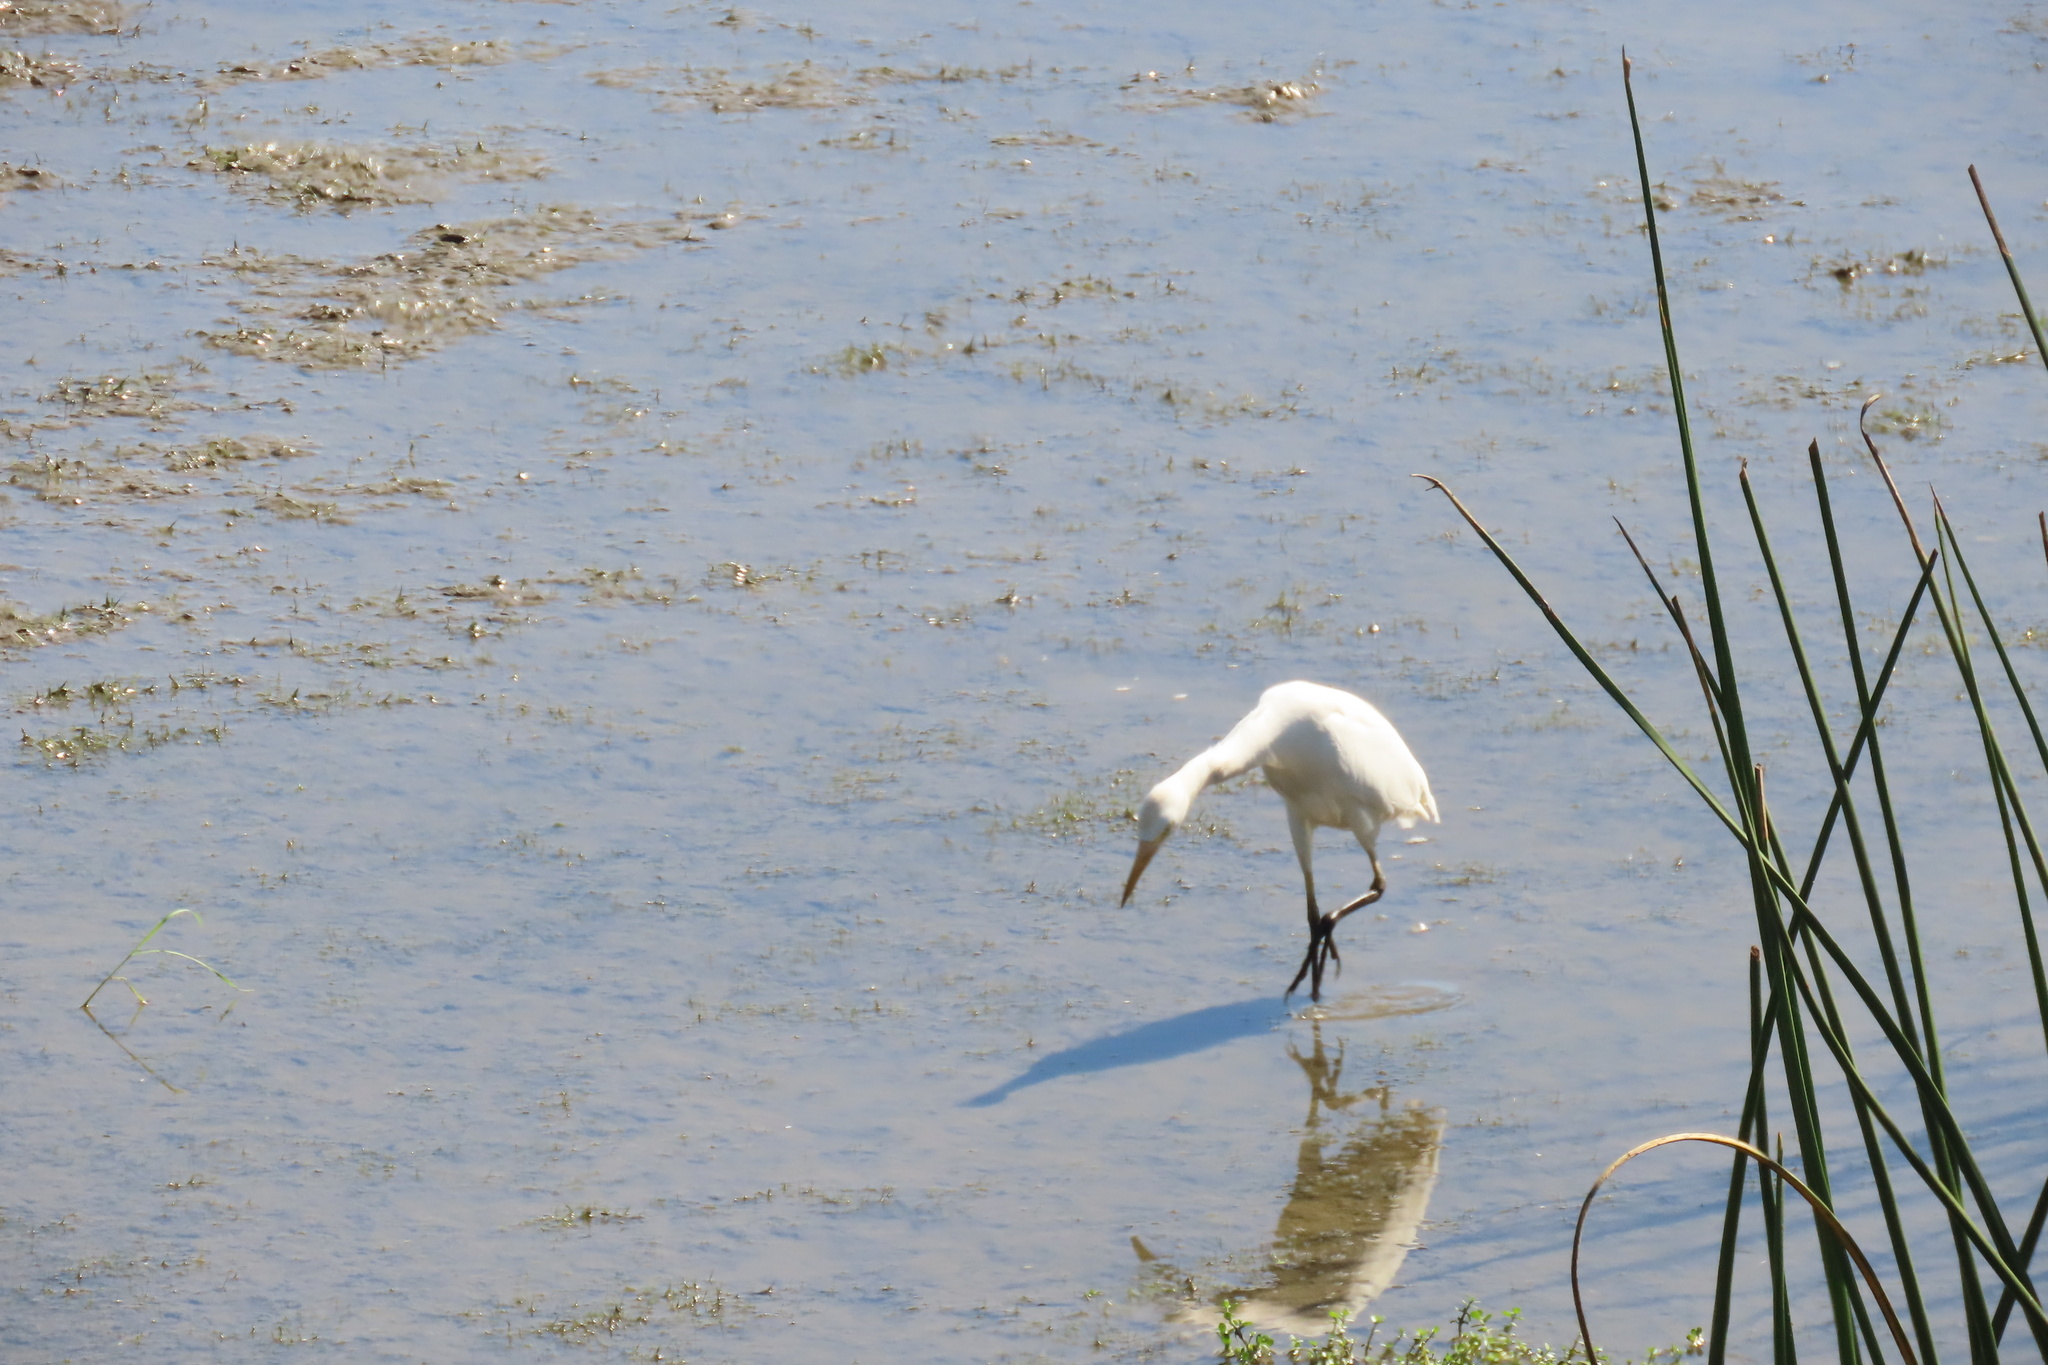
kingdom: Animalia
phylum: Chordata
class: Aves
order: Pelecaniformes
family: Ardeidae
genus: Bubulcus
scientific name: Bubulcus ibis
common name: Cattle egret
